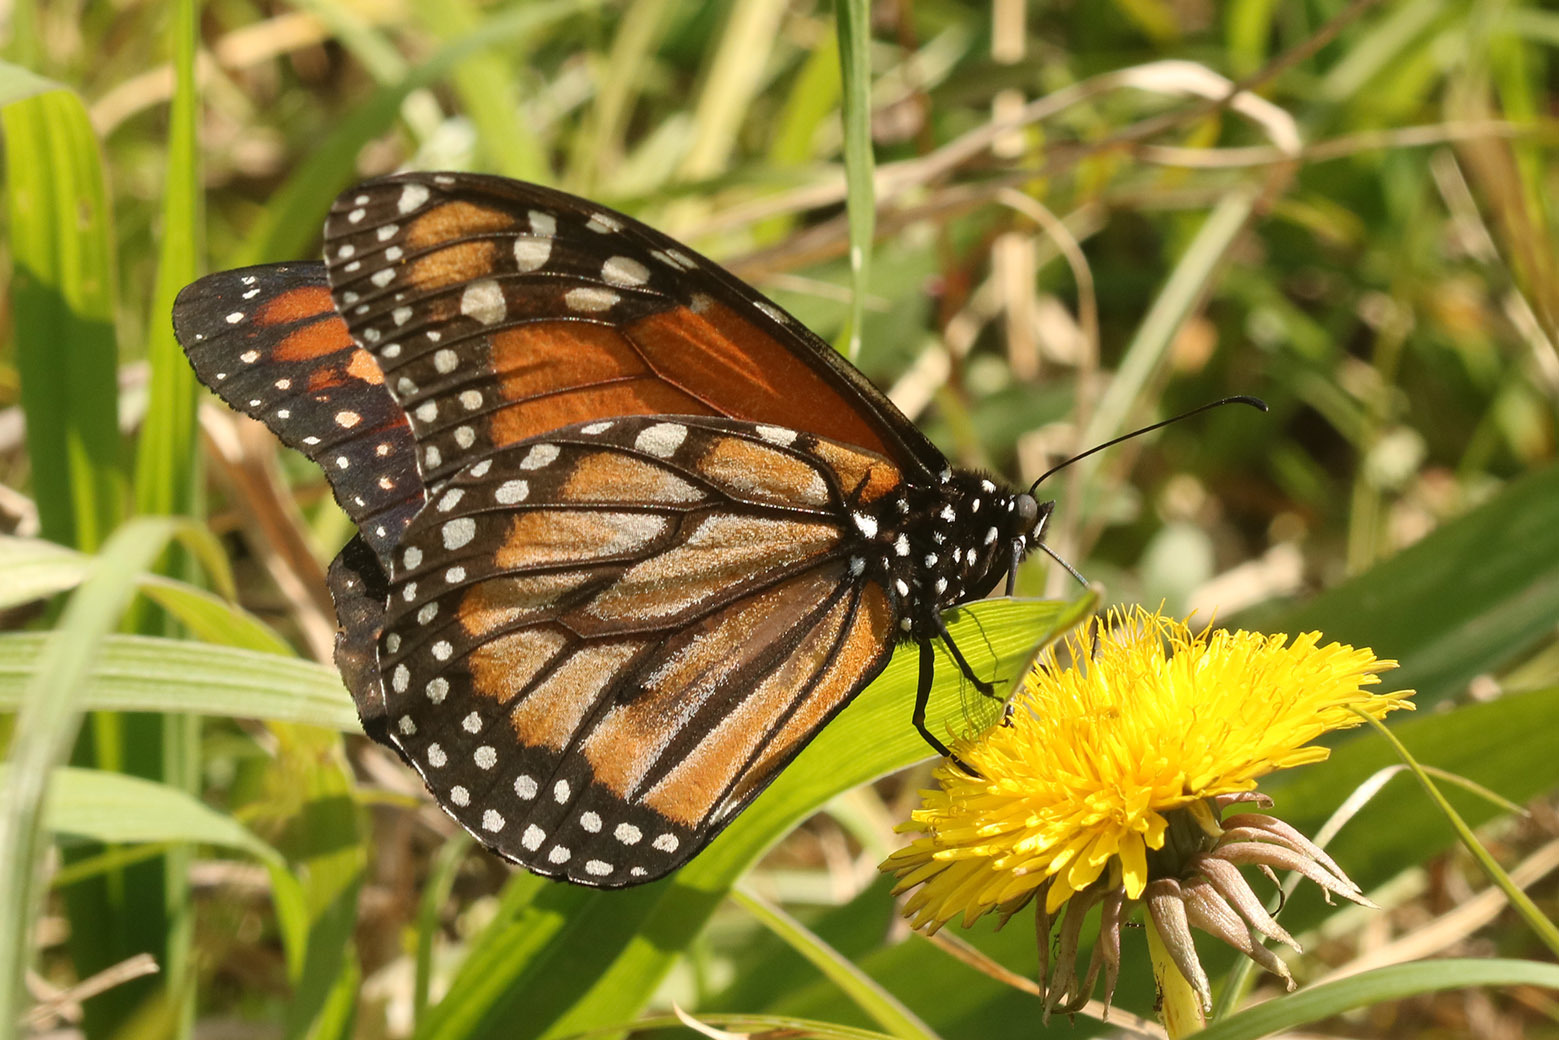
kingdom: Animalia
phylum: Arthropoda
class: Insecta
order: Lepidoptera
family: Nymphalidae
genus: Danaus
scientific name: Danaus erippus
